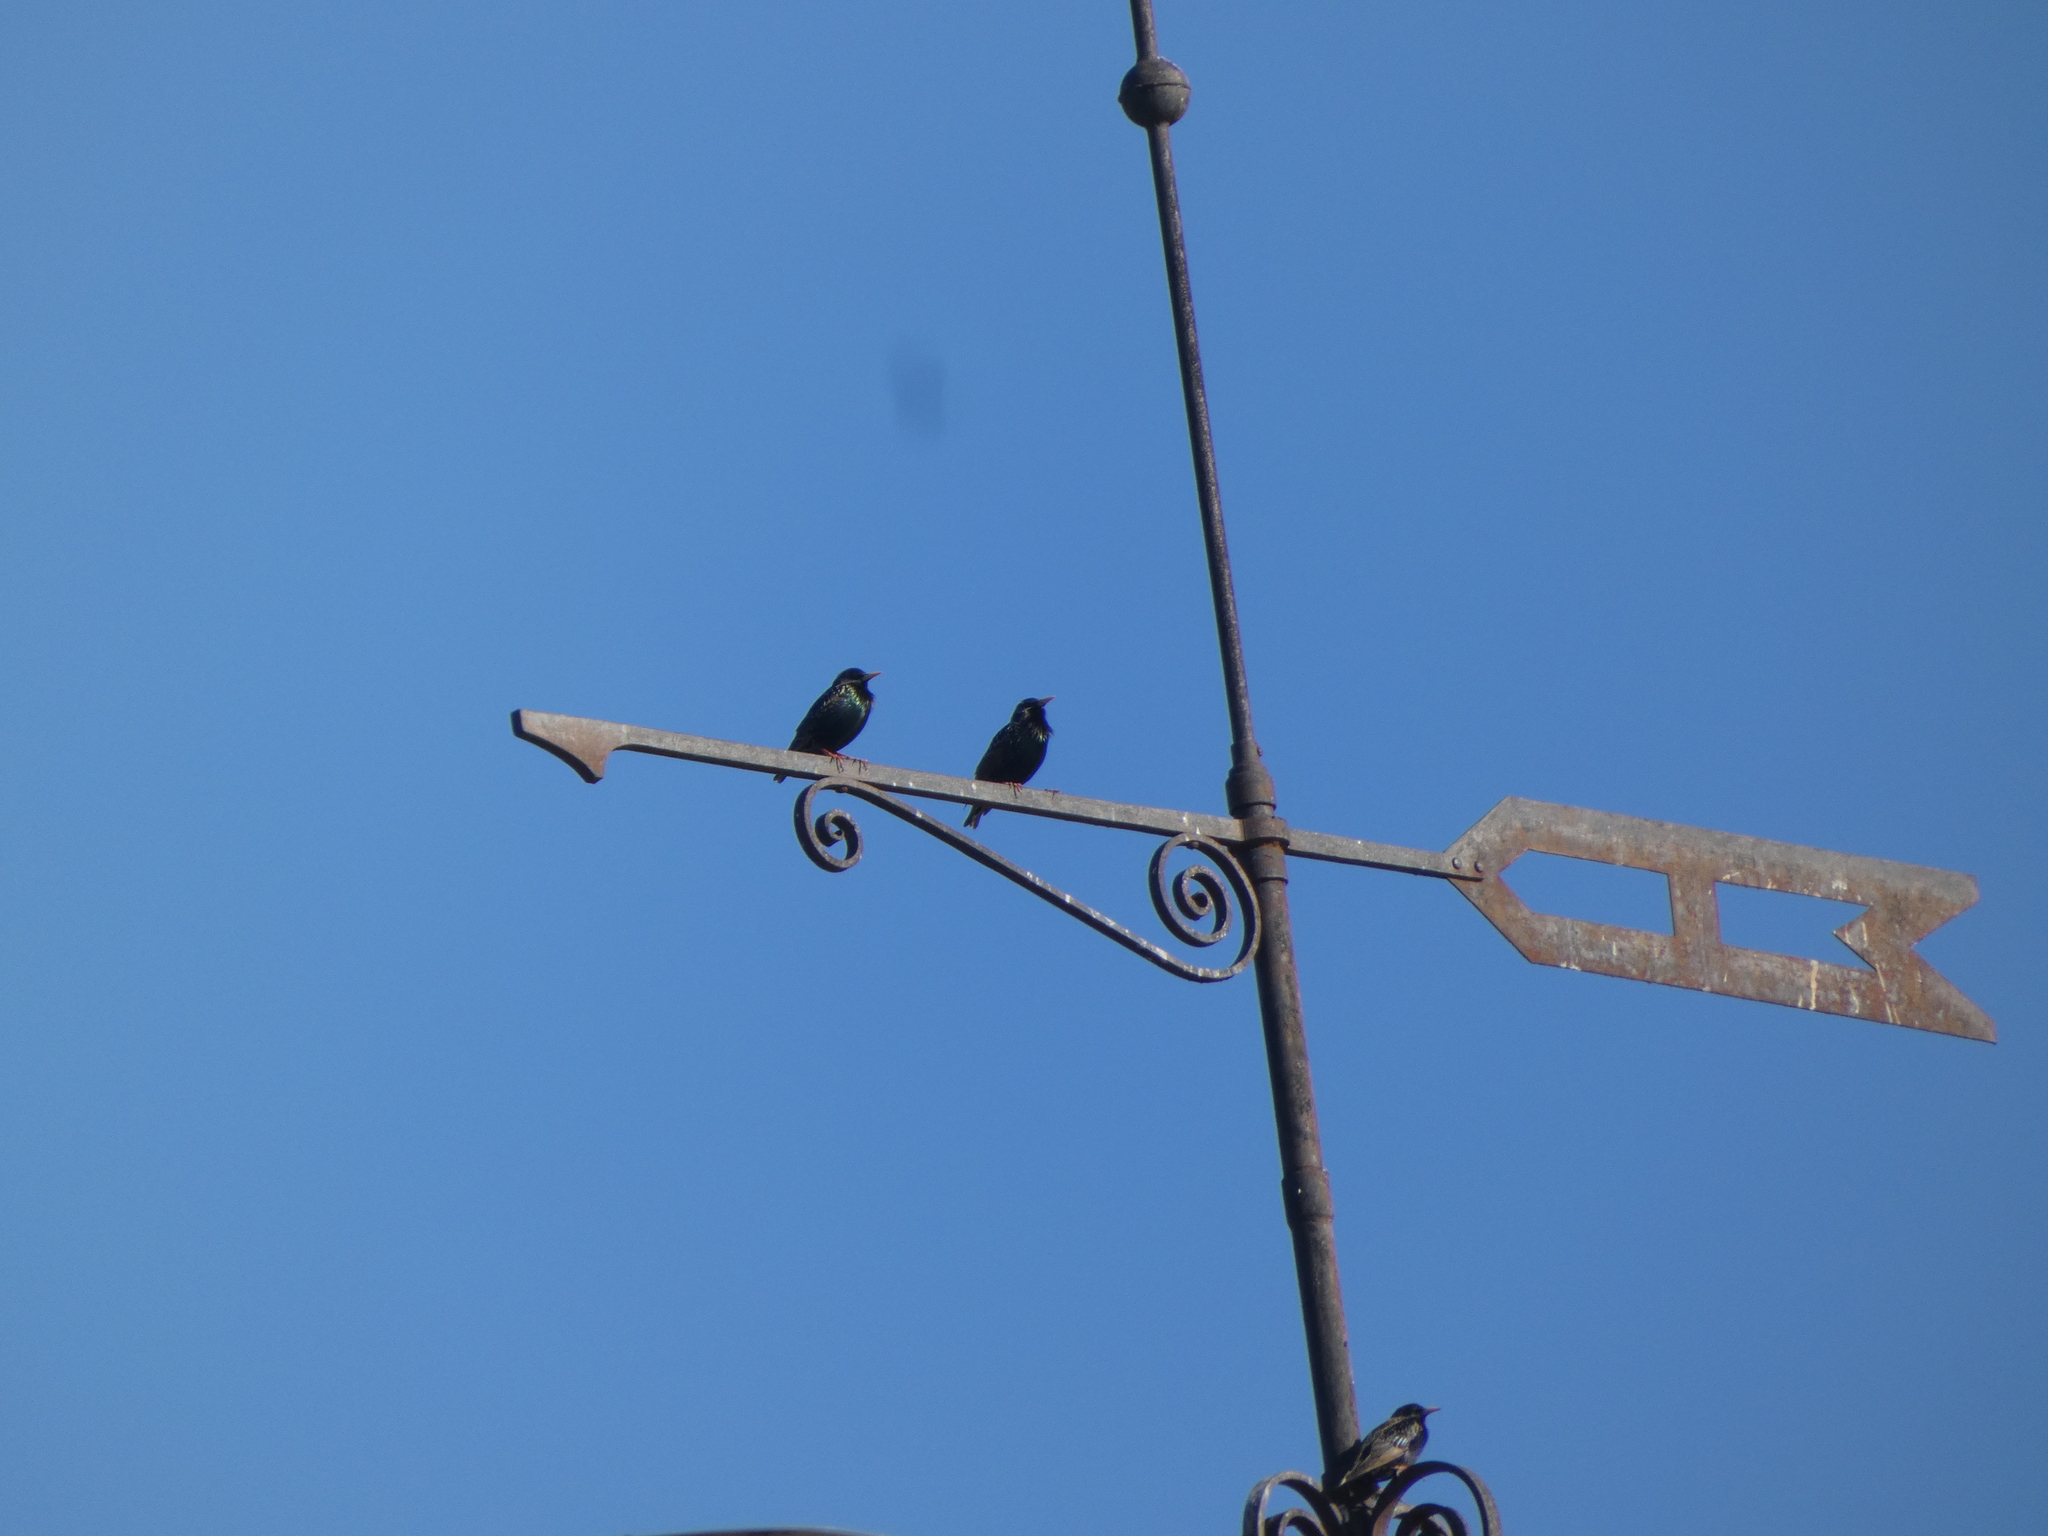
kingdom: Animalia
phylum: Chordata
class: Aves
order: Passeriformes
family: Sturnidae
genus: Sturnus
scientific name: Sturnus vulgaris
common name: Common starling
